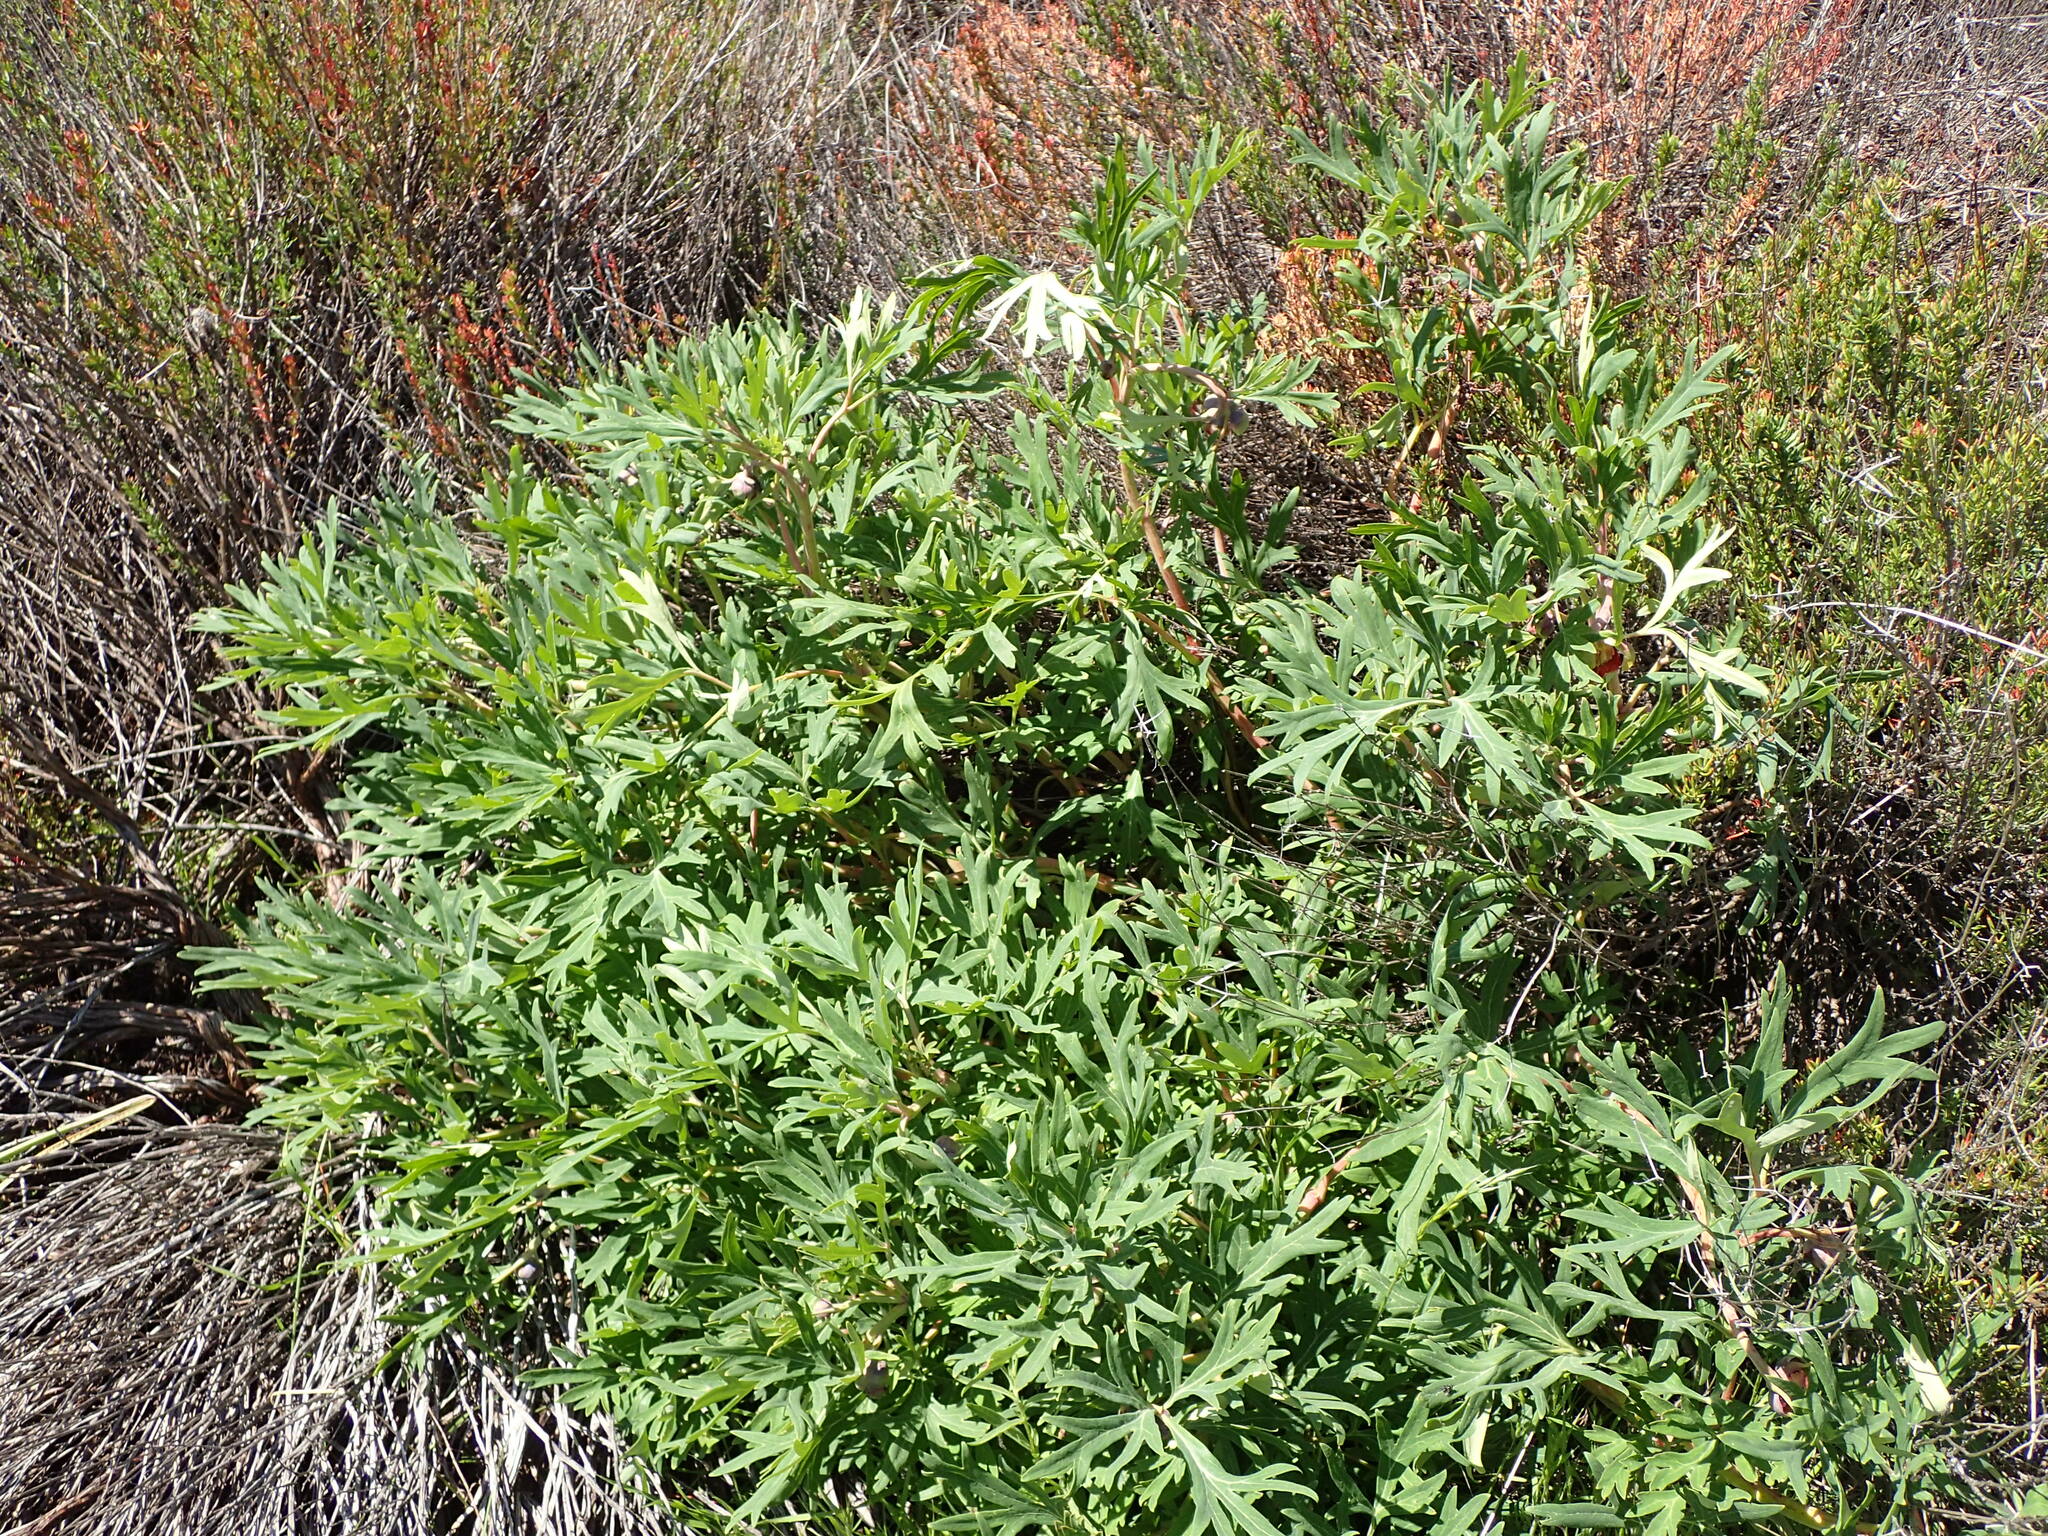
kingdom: Plantae
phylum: Tracheophyta
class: Magnoliopsida
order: Saxifragales
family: Paeoniaceae
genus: Paeonia
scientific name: Paeonia californica
